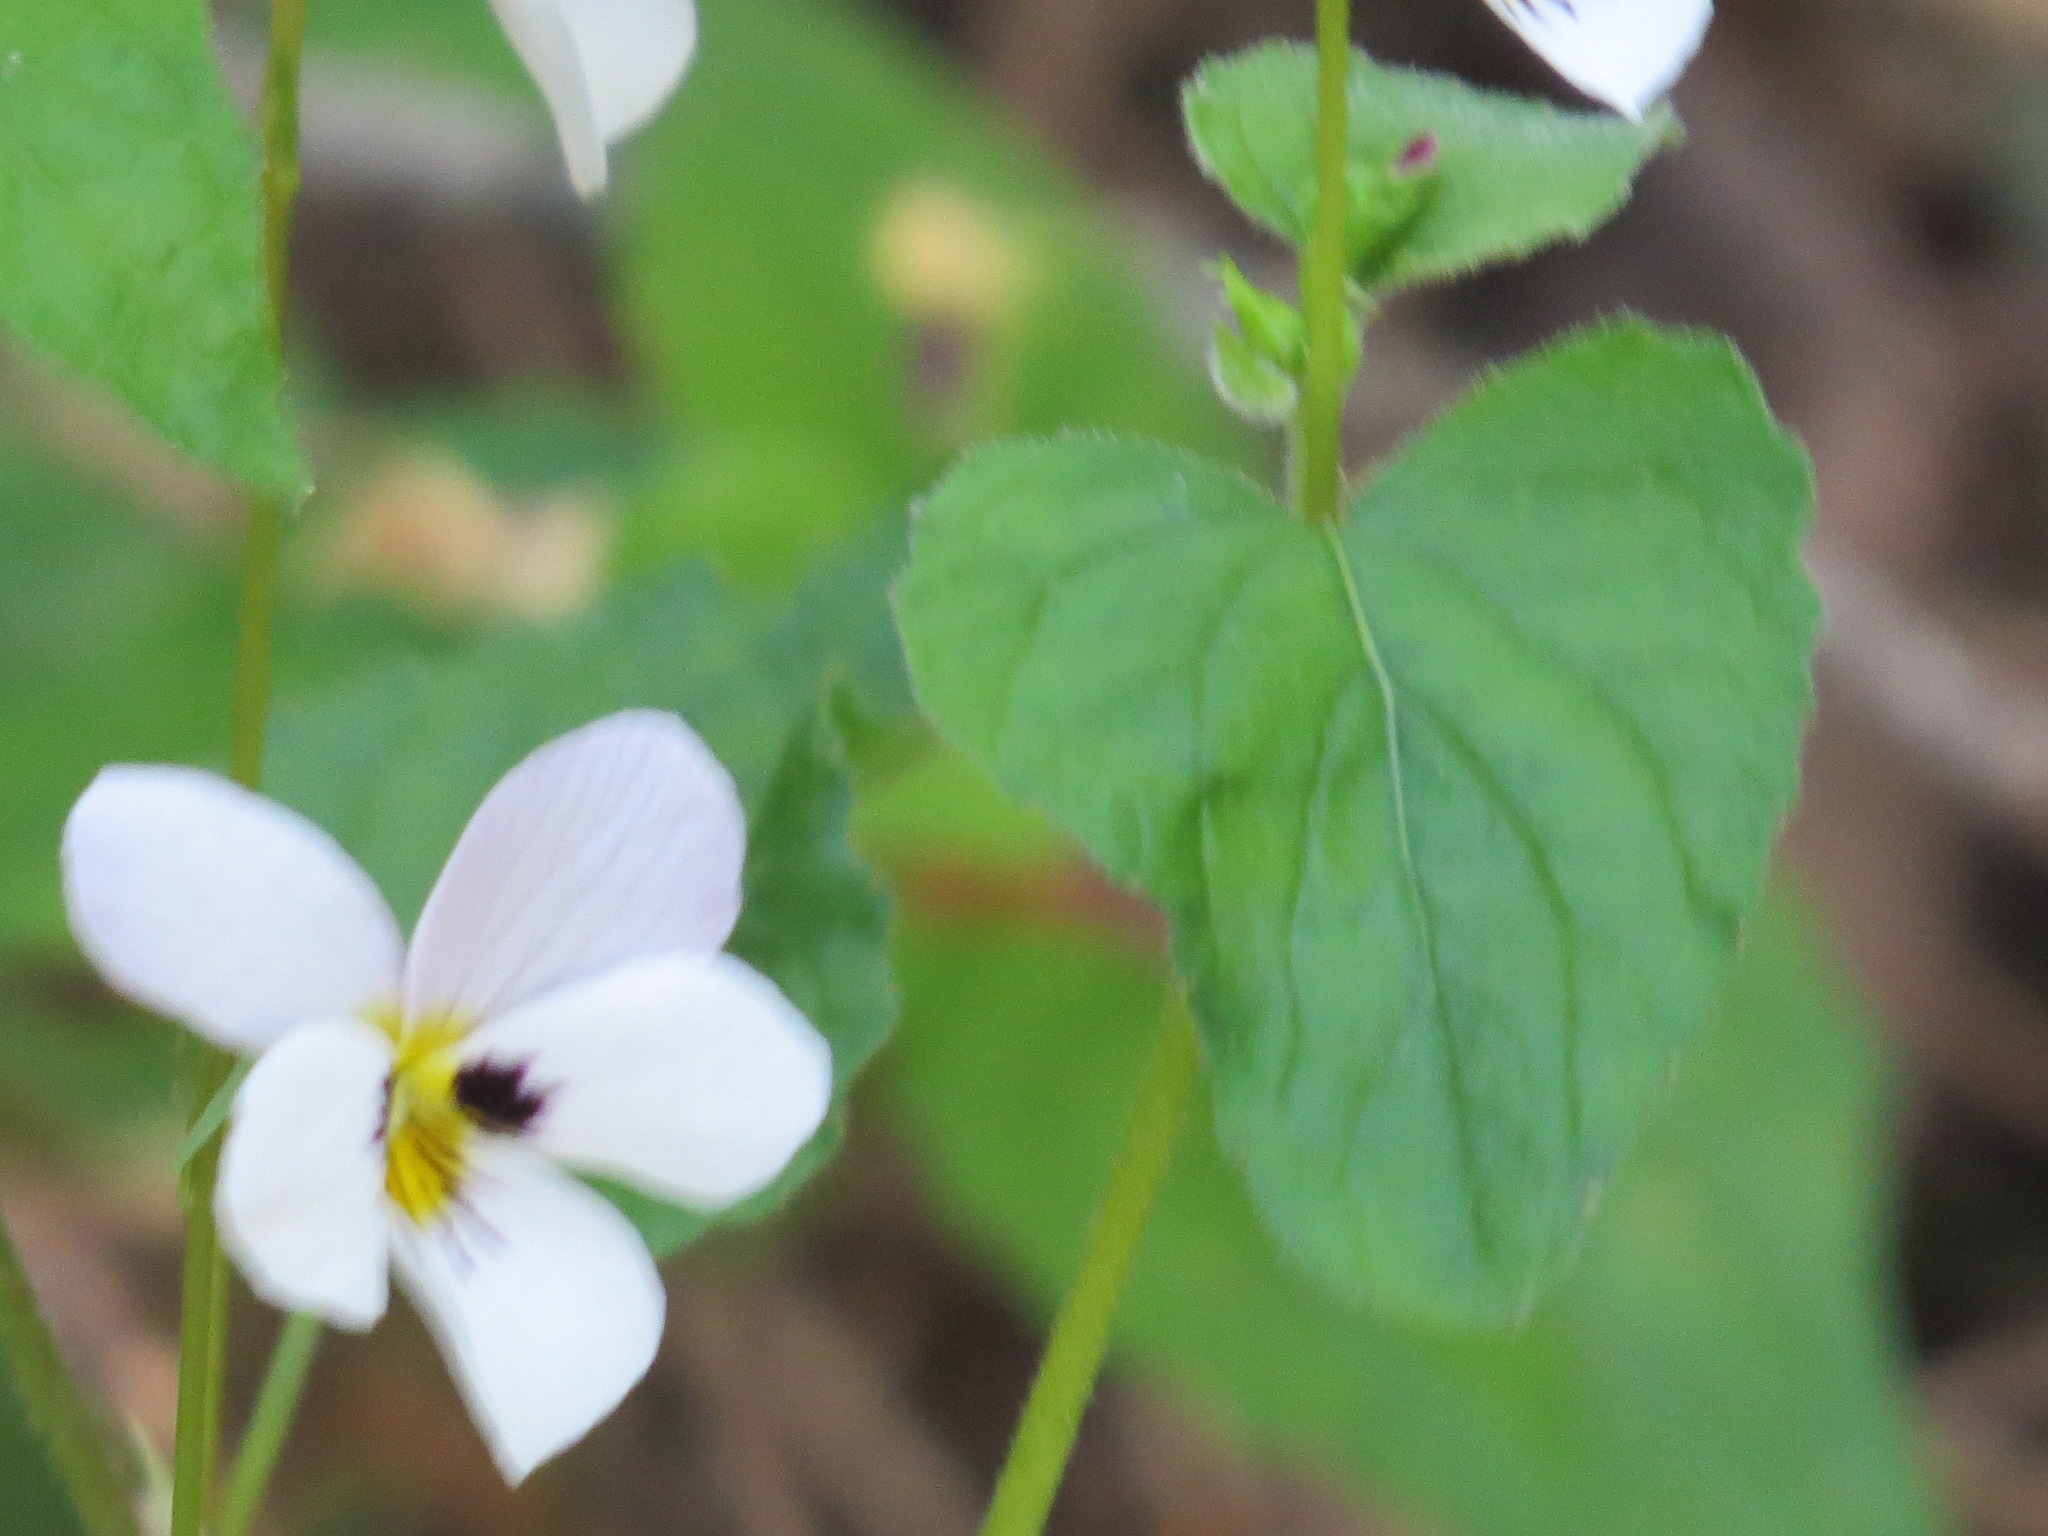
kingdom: Plantae
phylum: Tracheophyta
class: Magnoliopsida
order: Malpighiales
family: Violaceae
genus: Viola
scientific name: Viola ocellata
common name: Western heart's ease
